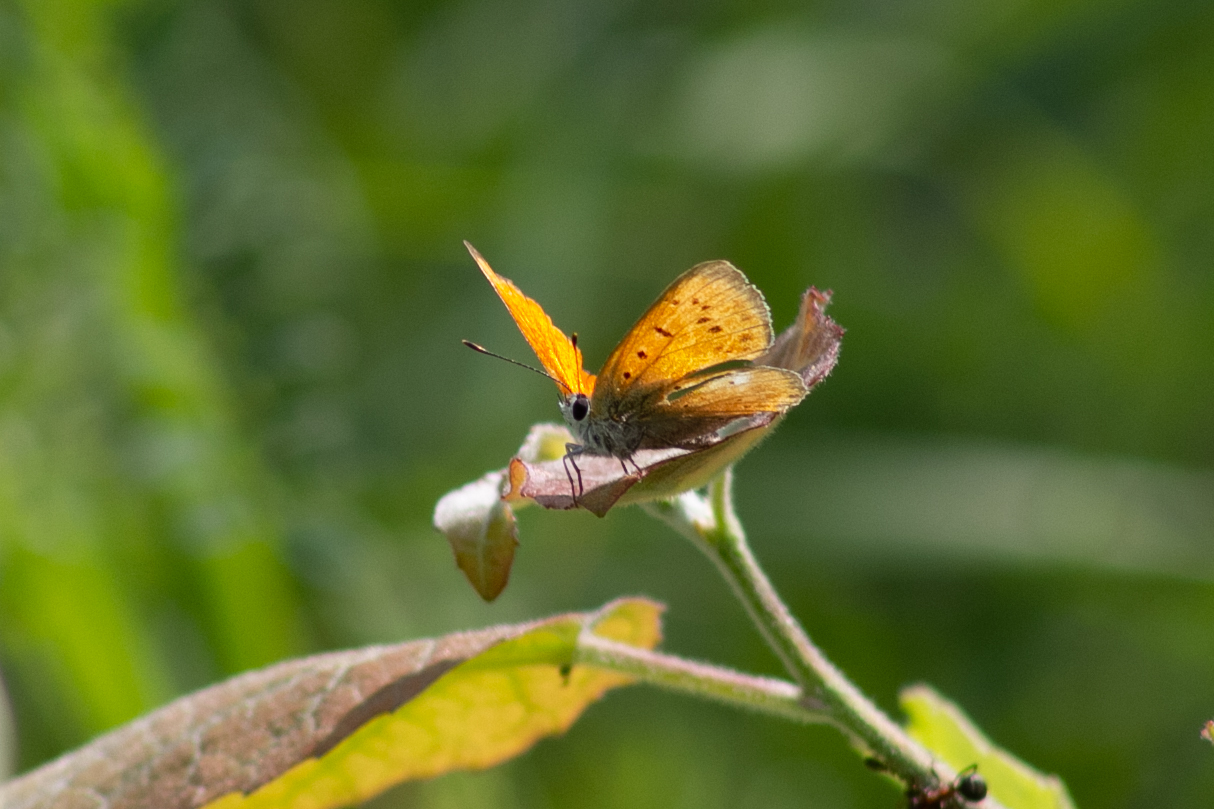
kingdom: Animalia
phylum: Arthropoda
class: Insecta
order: Lepidoptera
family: Lycaenidae
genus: Lycaena
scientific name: Lycaena virgaureae
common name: Scarce copper
